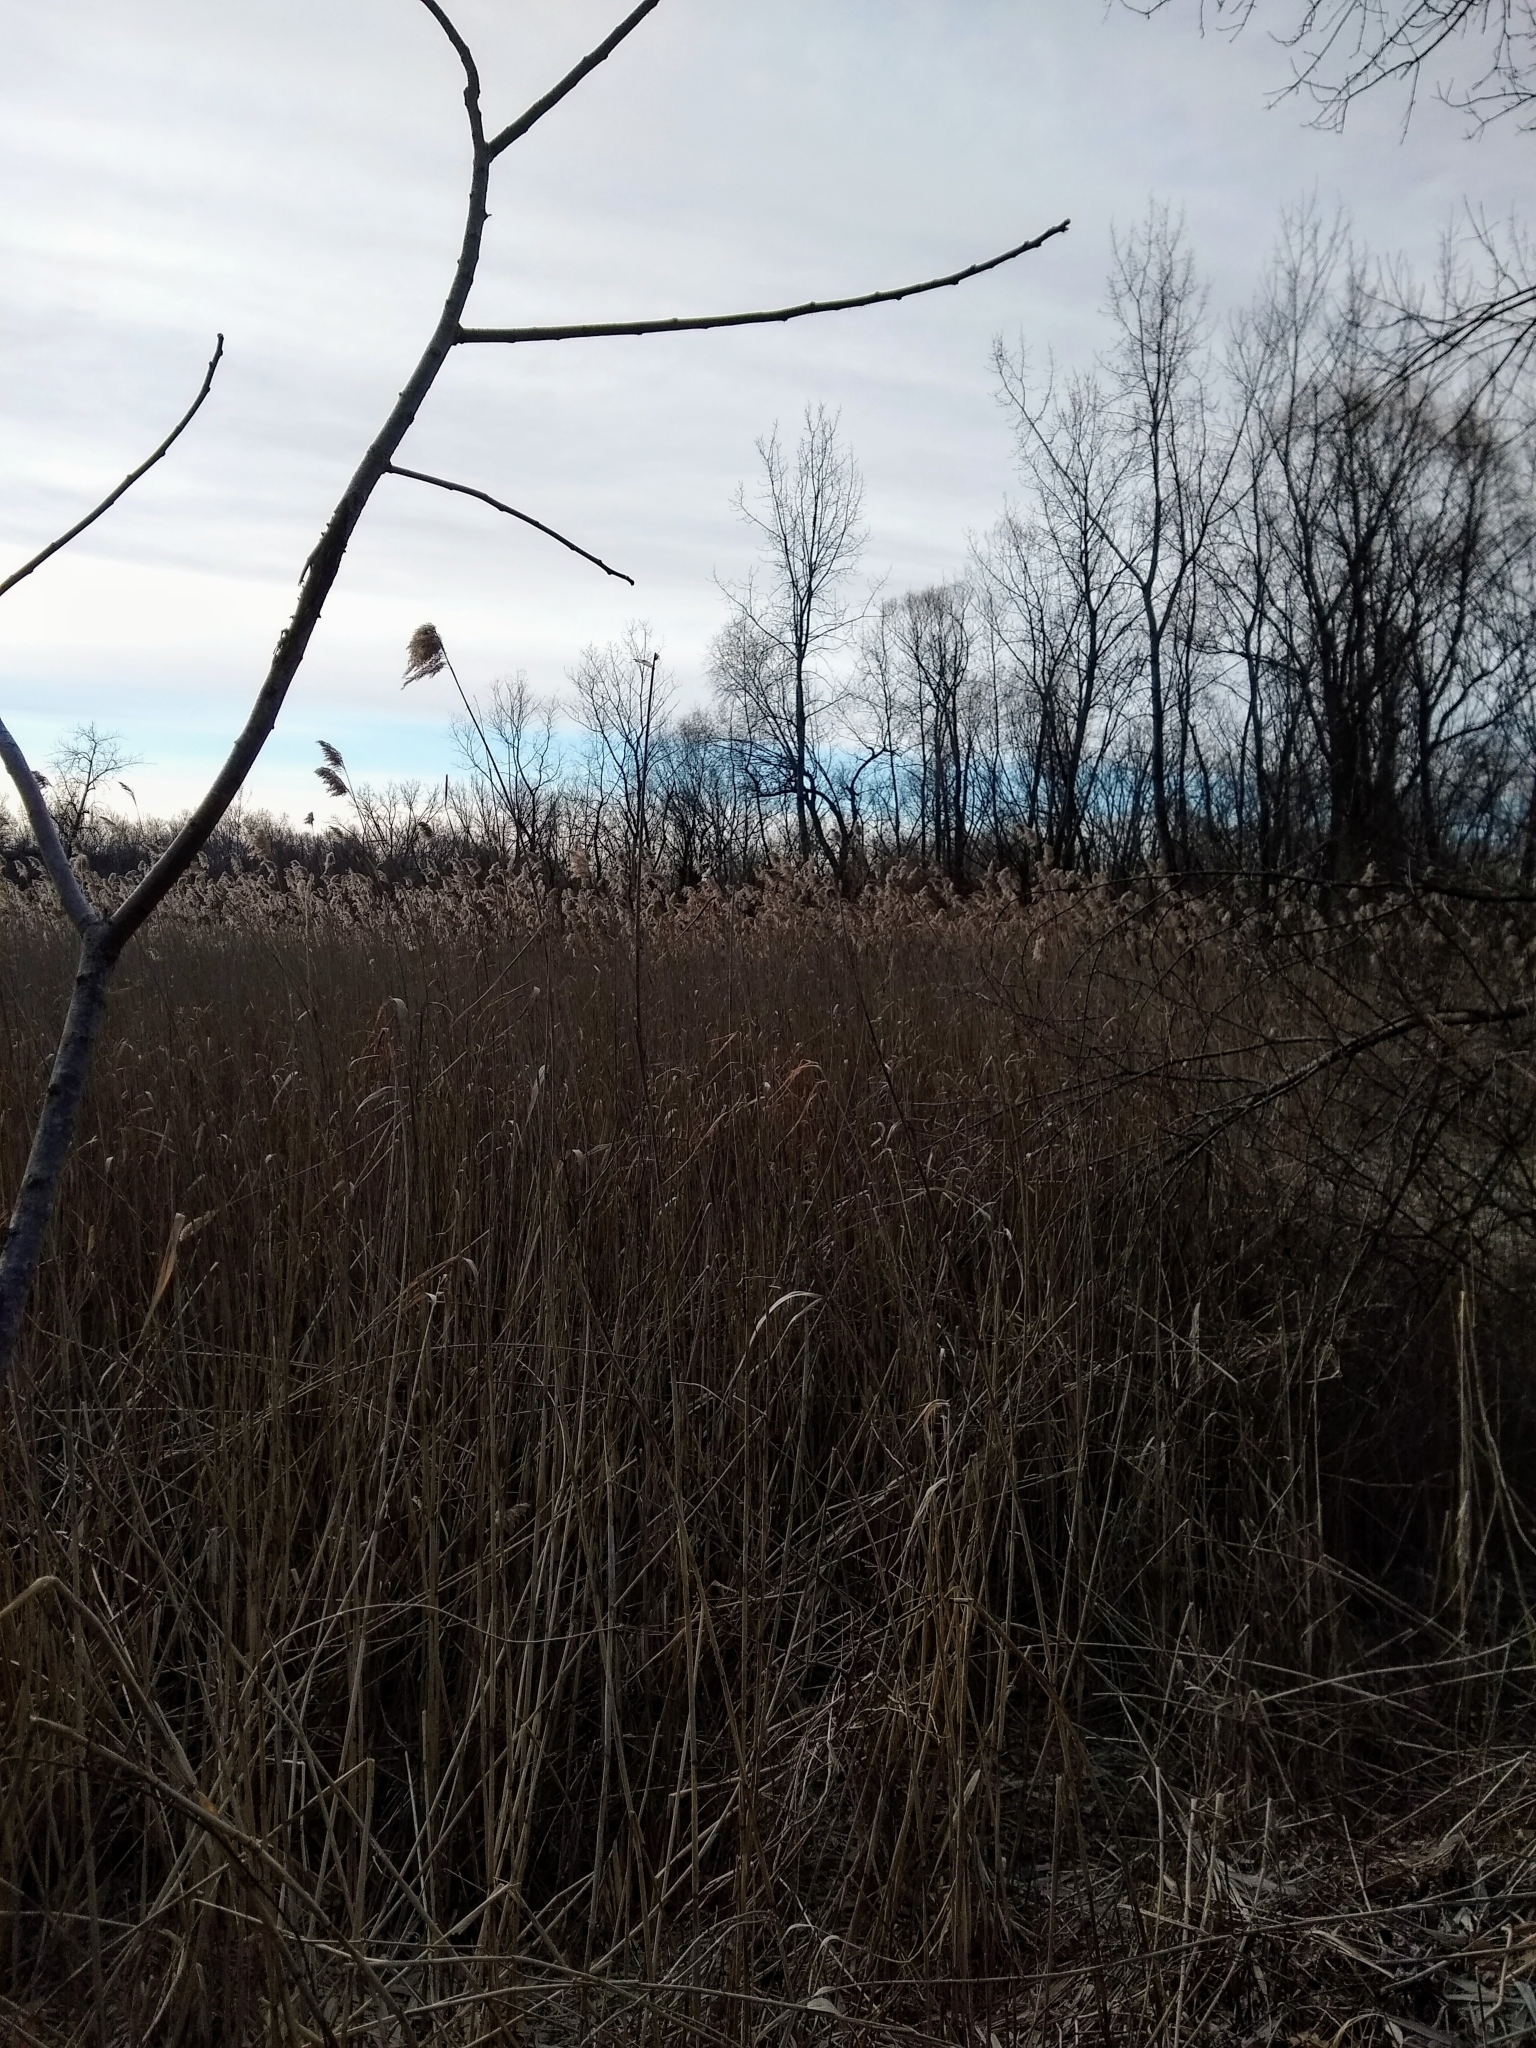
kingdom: Plantae
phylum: Tracheophyta
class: Liliopsida
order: Poales
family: Poaceae
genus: Phragmites
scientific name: Phragmites australis
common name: Common reed
